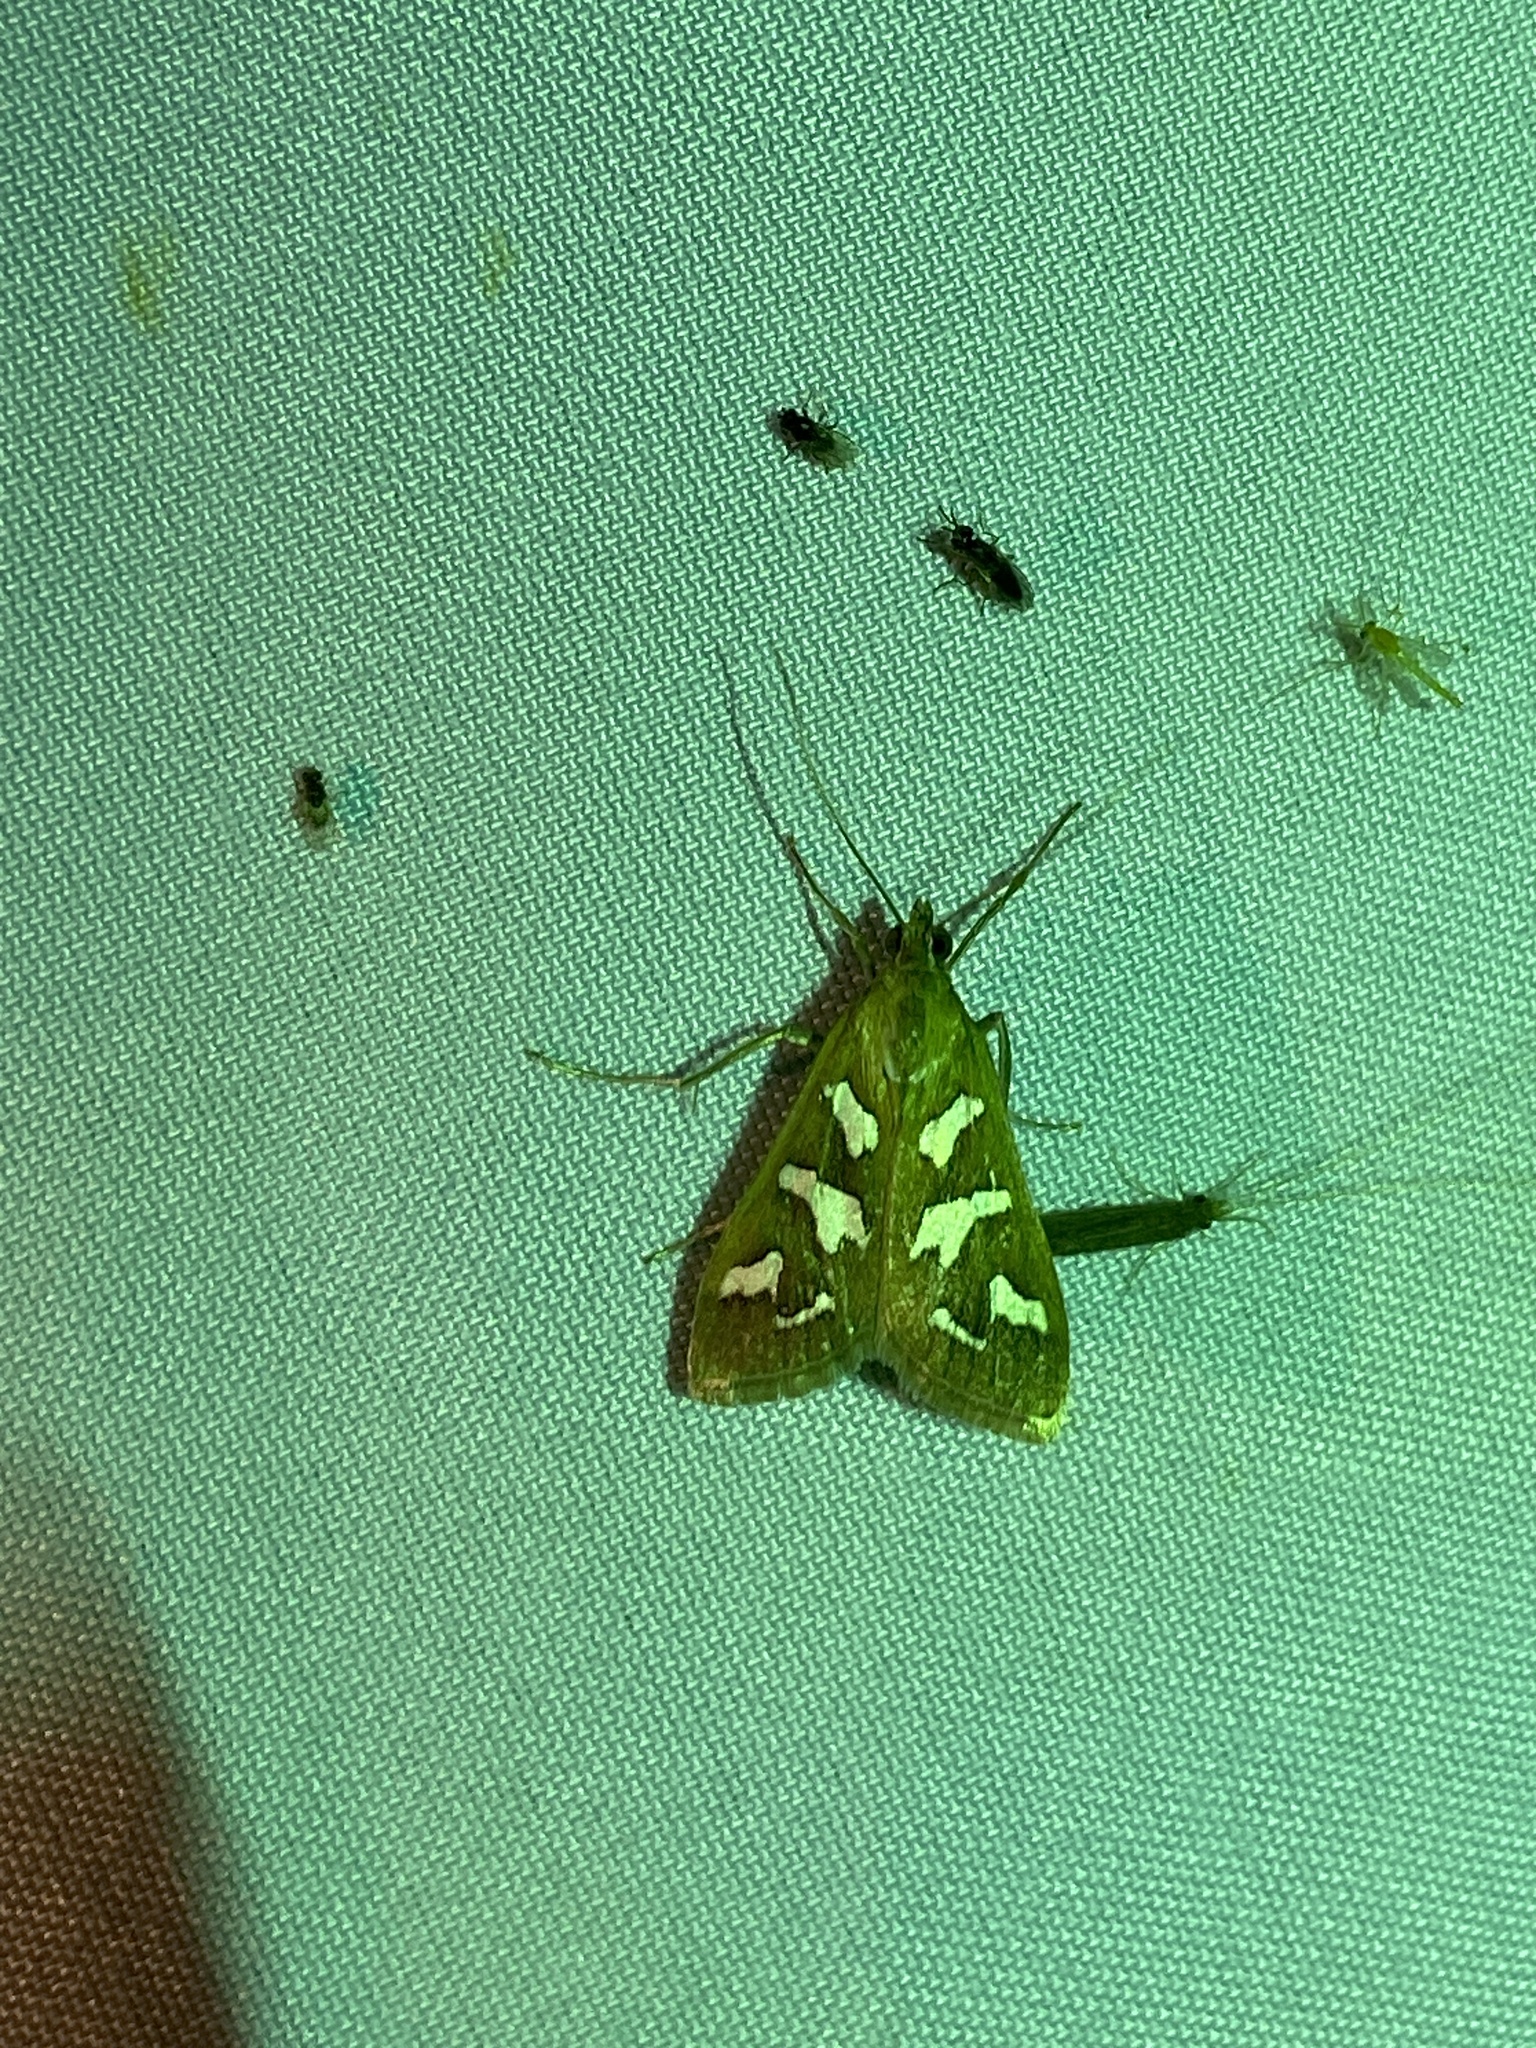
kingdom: Animalia
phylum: Arthropoda
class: Insecta
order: Lepidoptera
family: Crambidae
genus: Diastictis
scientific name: Diastictis fracturalis
